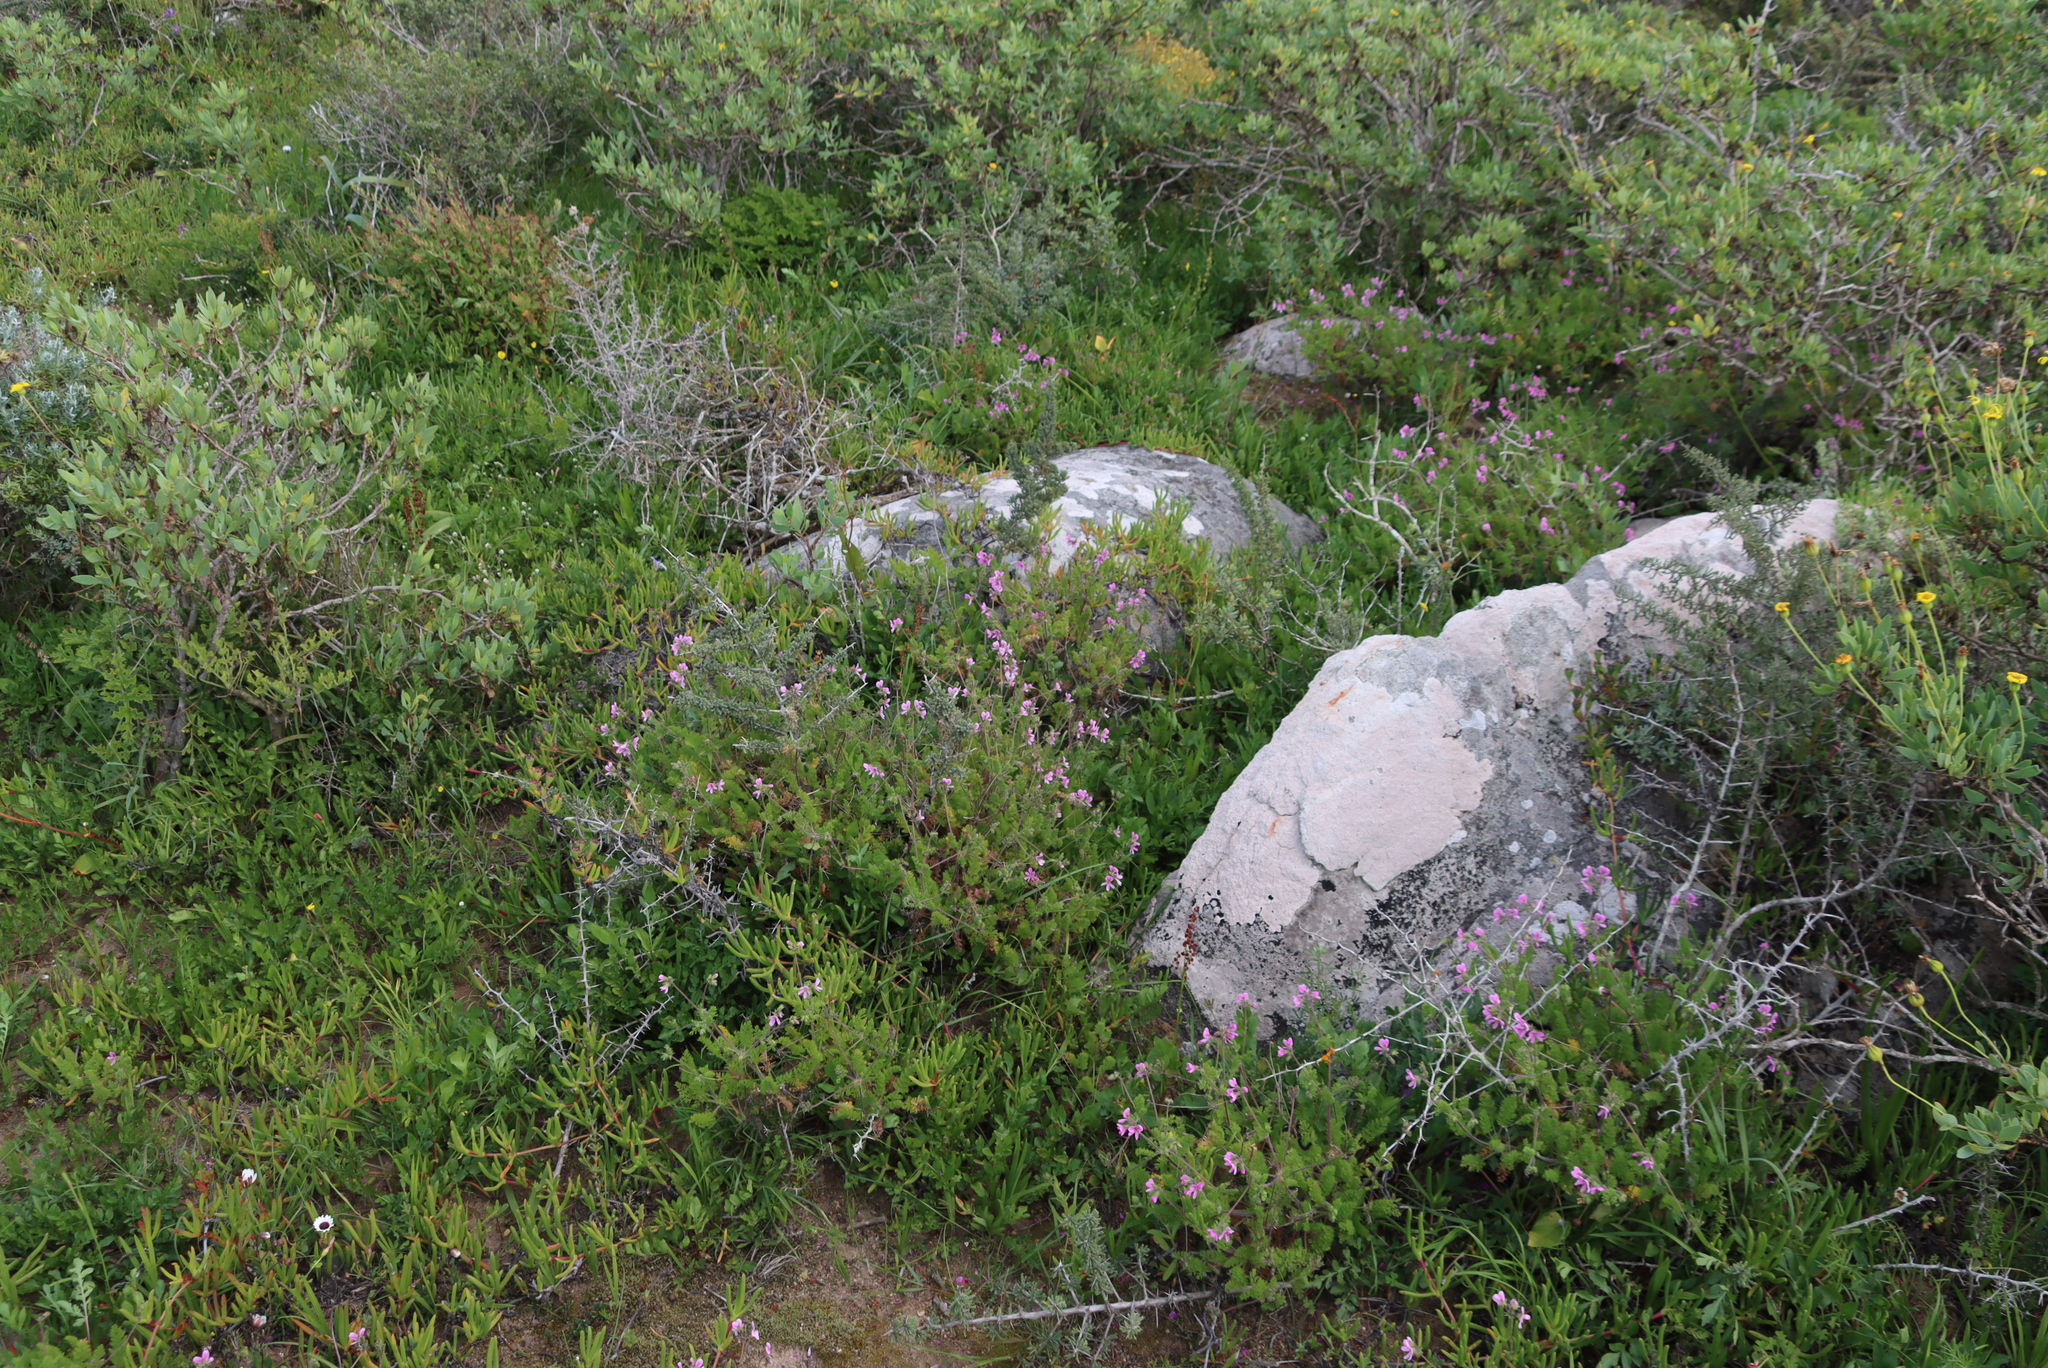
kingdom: Plantae
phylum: Tracheophyta
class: Magnoliopsida
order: Geraniales
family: Geraniaceae
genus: Pelargonium
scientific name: Pelargonium hirtum
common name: Fine-leaf pelargonium
